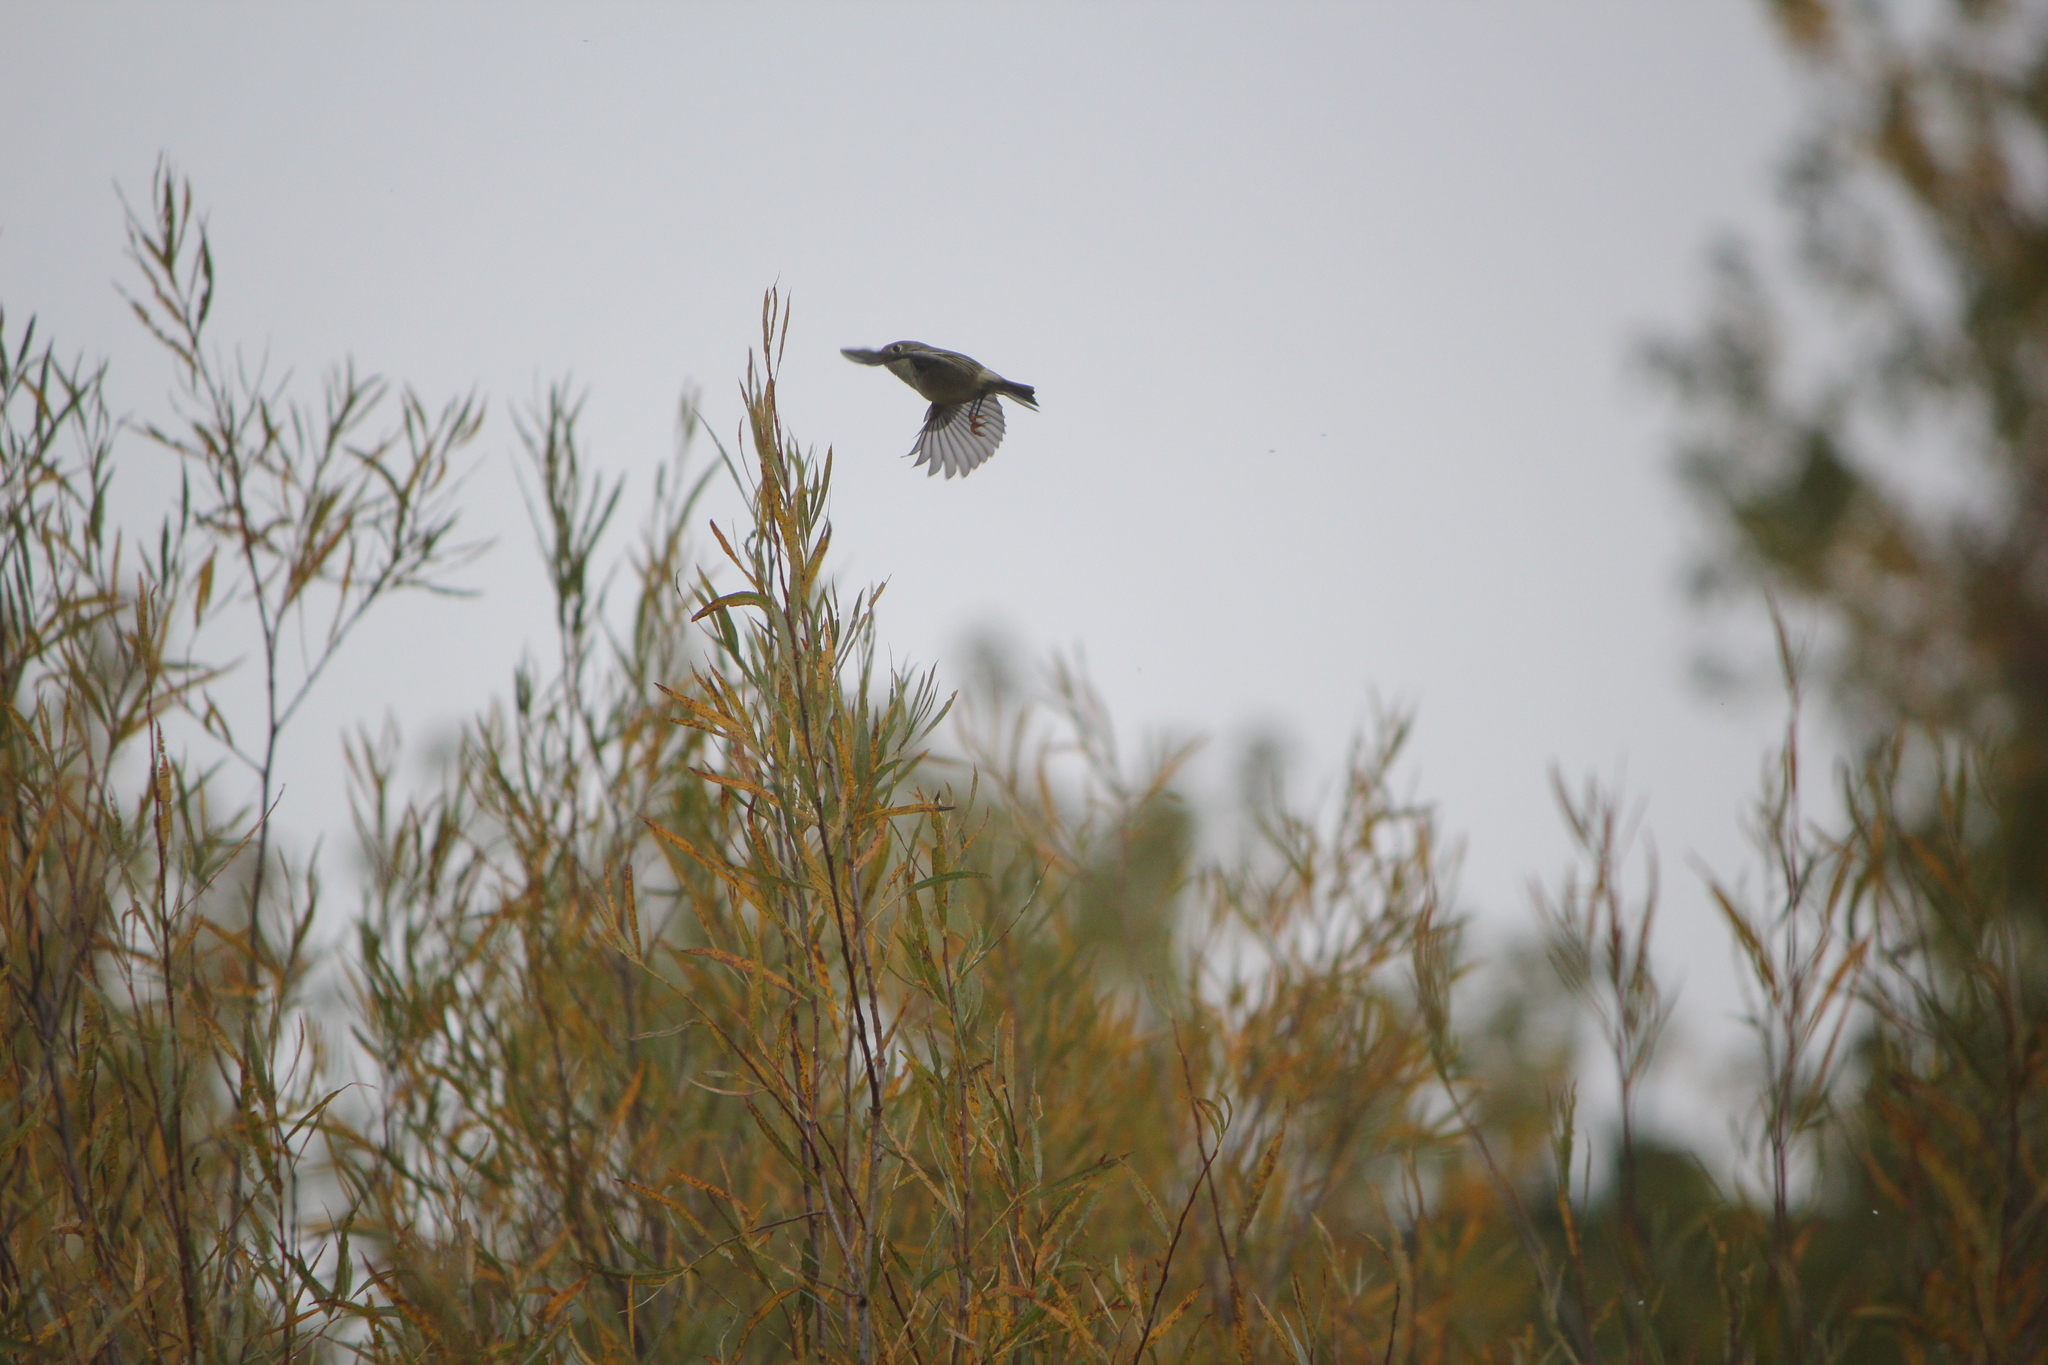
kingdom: Animalia
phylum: Chordata
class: Aves
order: Passeriformes
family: Regulidae
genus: Regulus
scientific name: Regulus calendula
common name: Ruby-crowned kinglet
